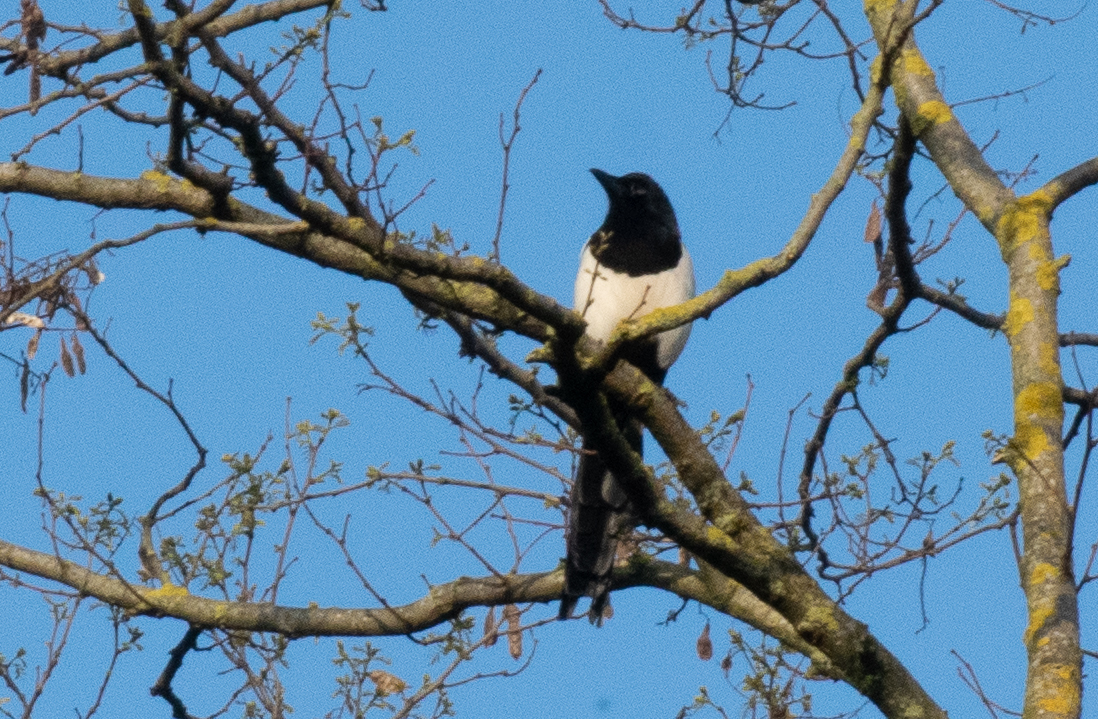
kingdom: Animalia
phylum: Chordata
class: Aves
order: Passeriformes
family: Corvidae
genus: Pica
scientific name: Pica pica
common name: Eurasian magpie
